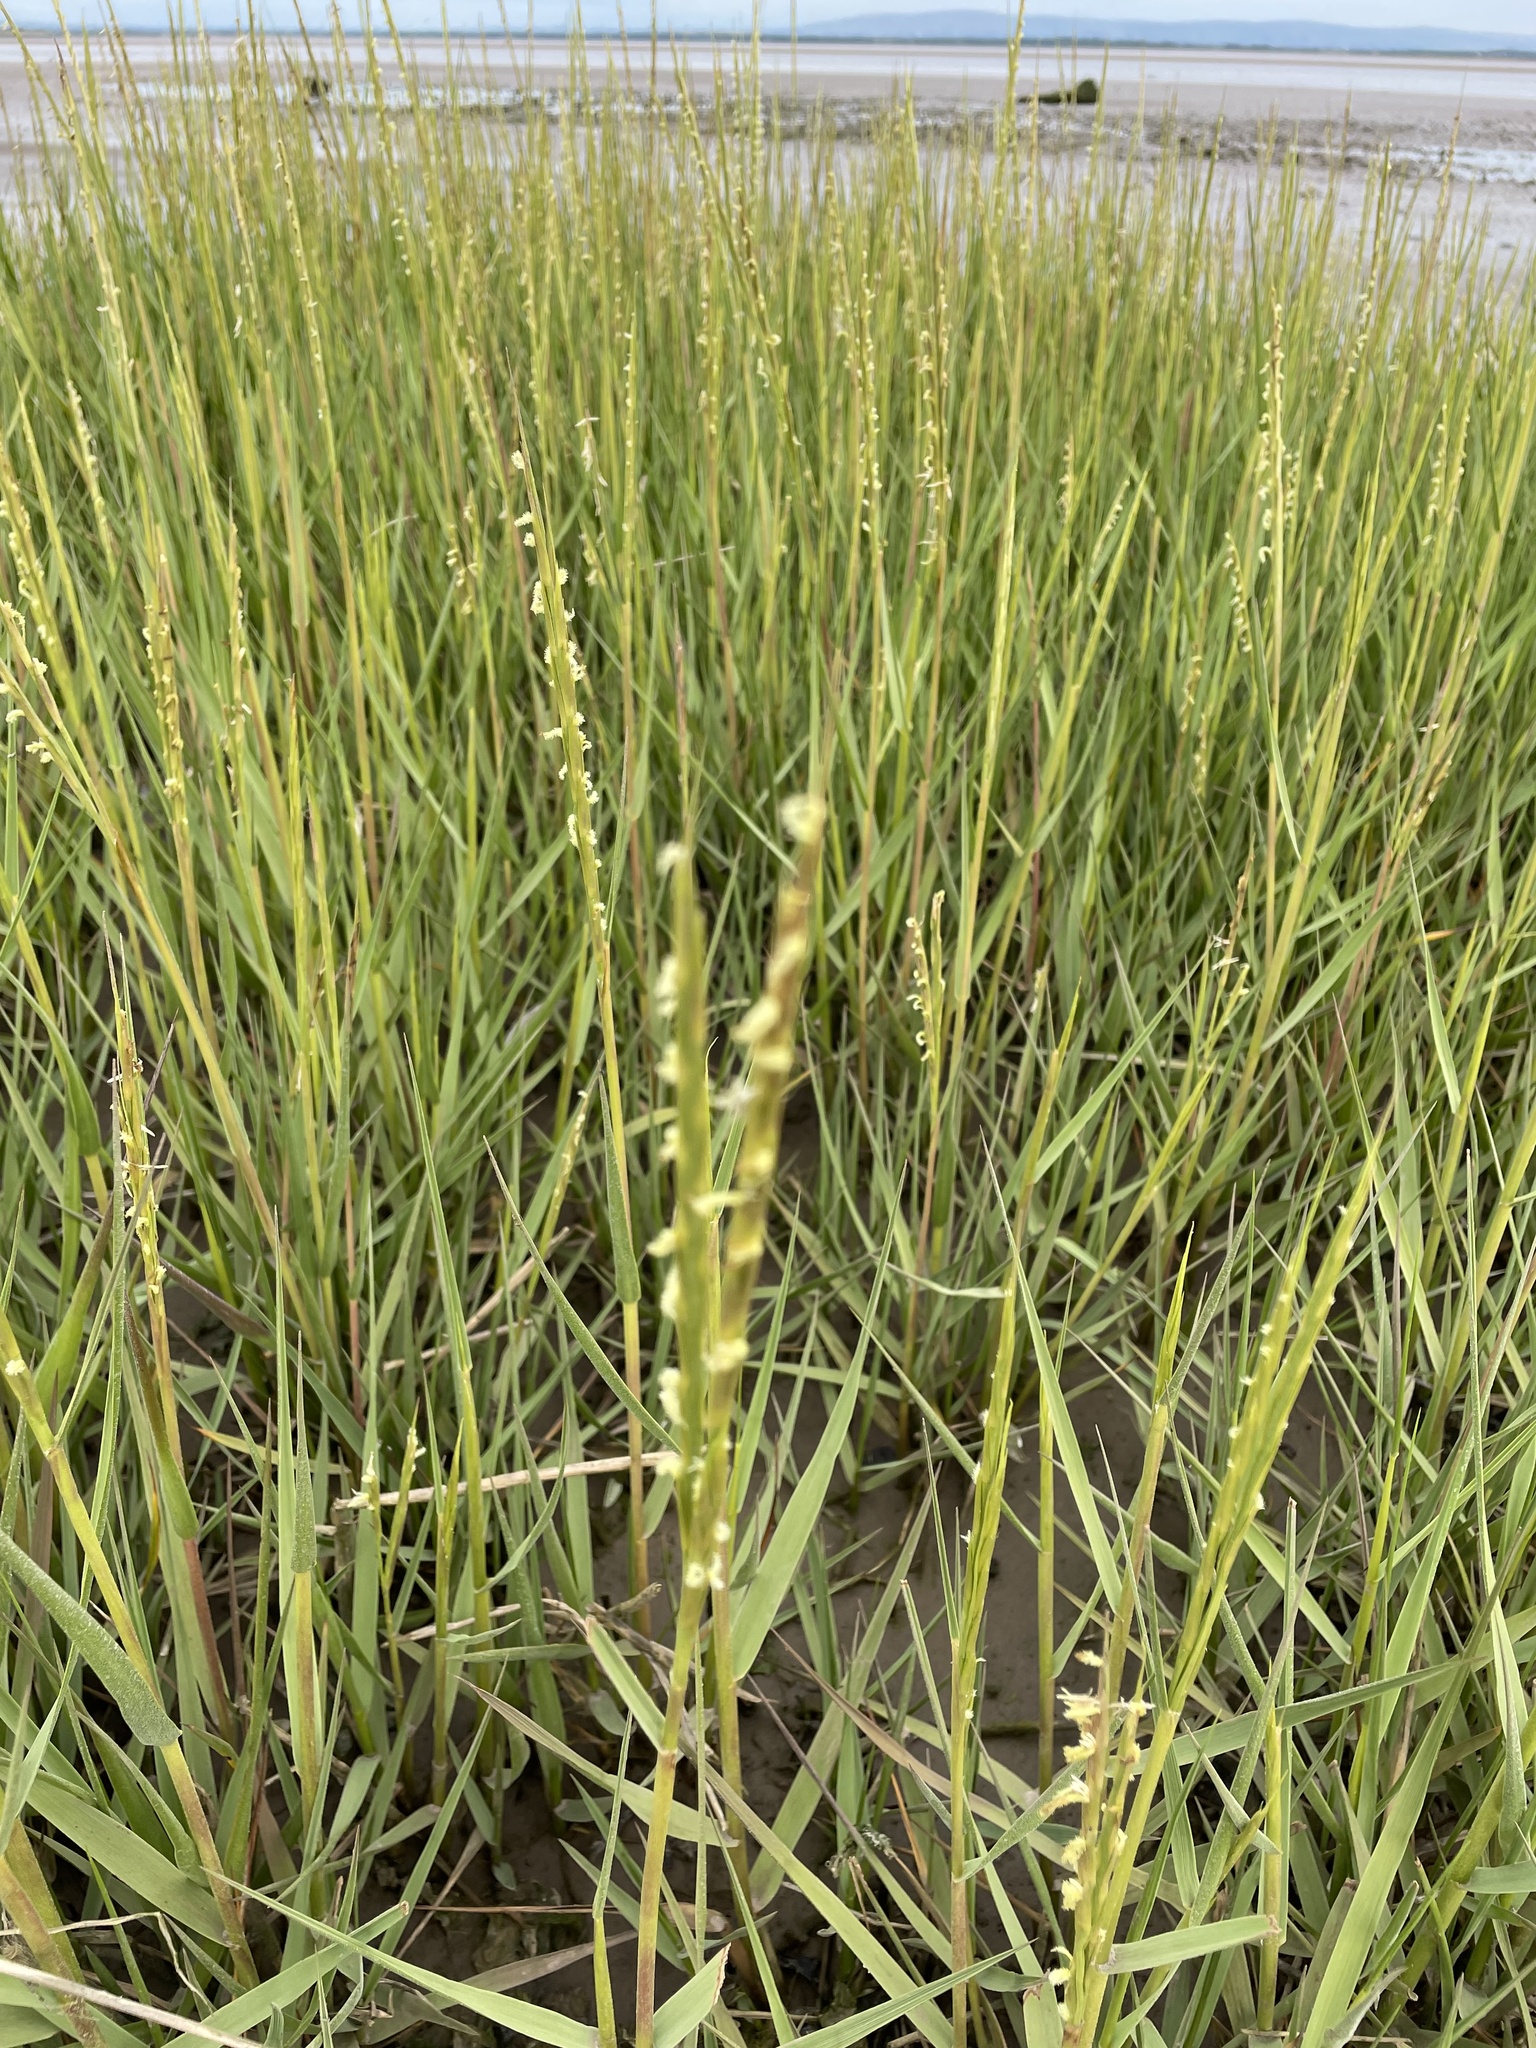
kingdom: Plantae
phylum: Tracheophyta
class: Liliopsida
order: Poales
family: Poaceae
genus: Sporobolus
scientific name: Sporobolus anglicus
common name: English cordgrass
